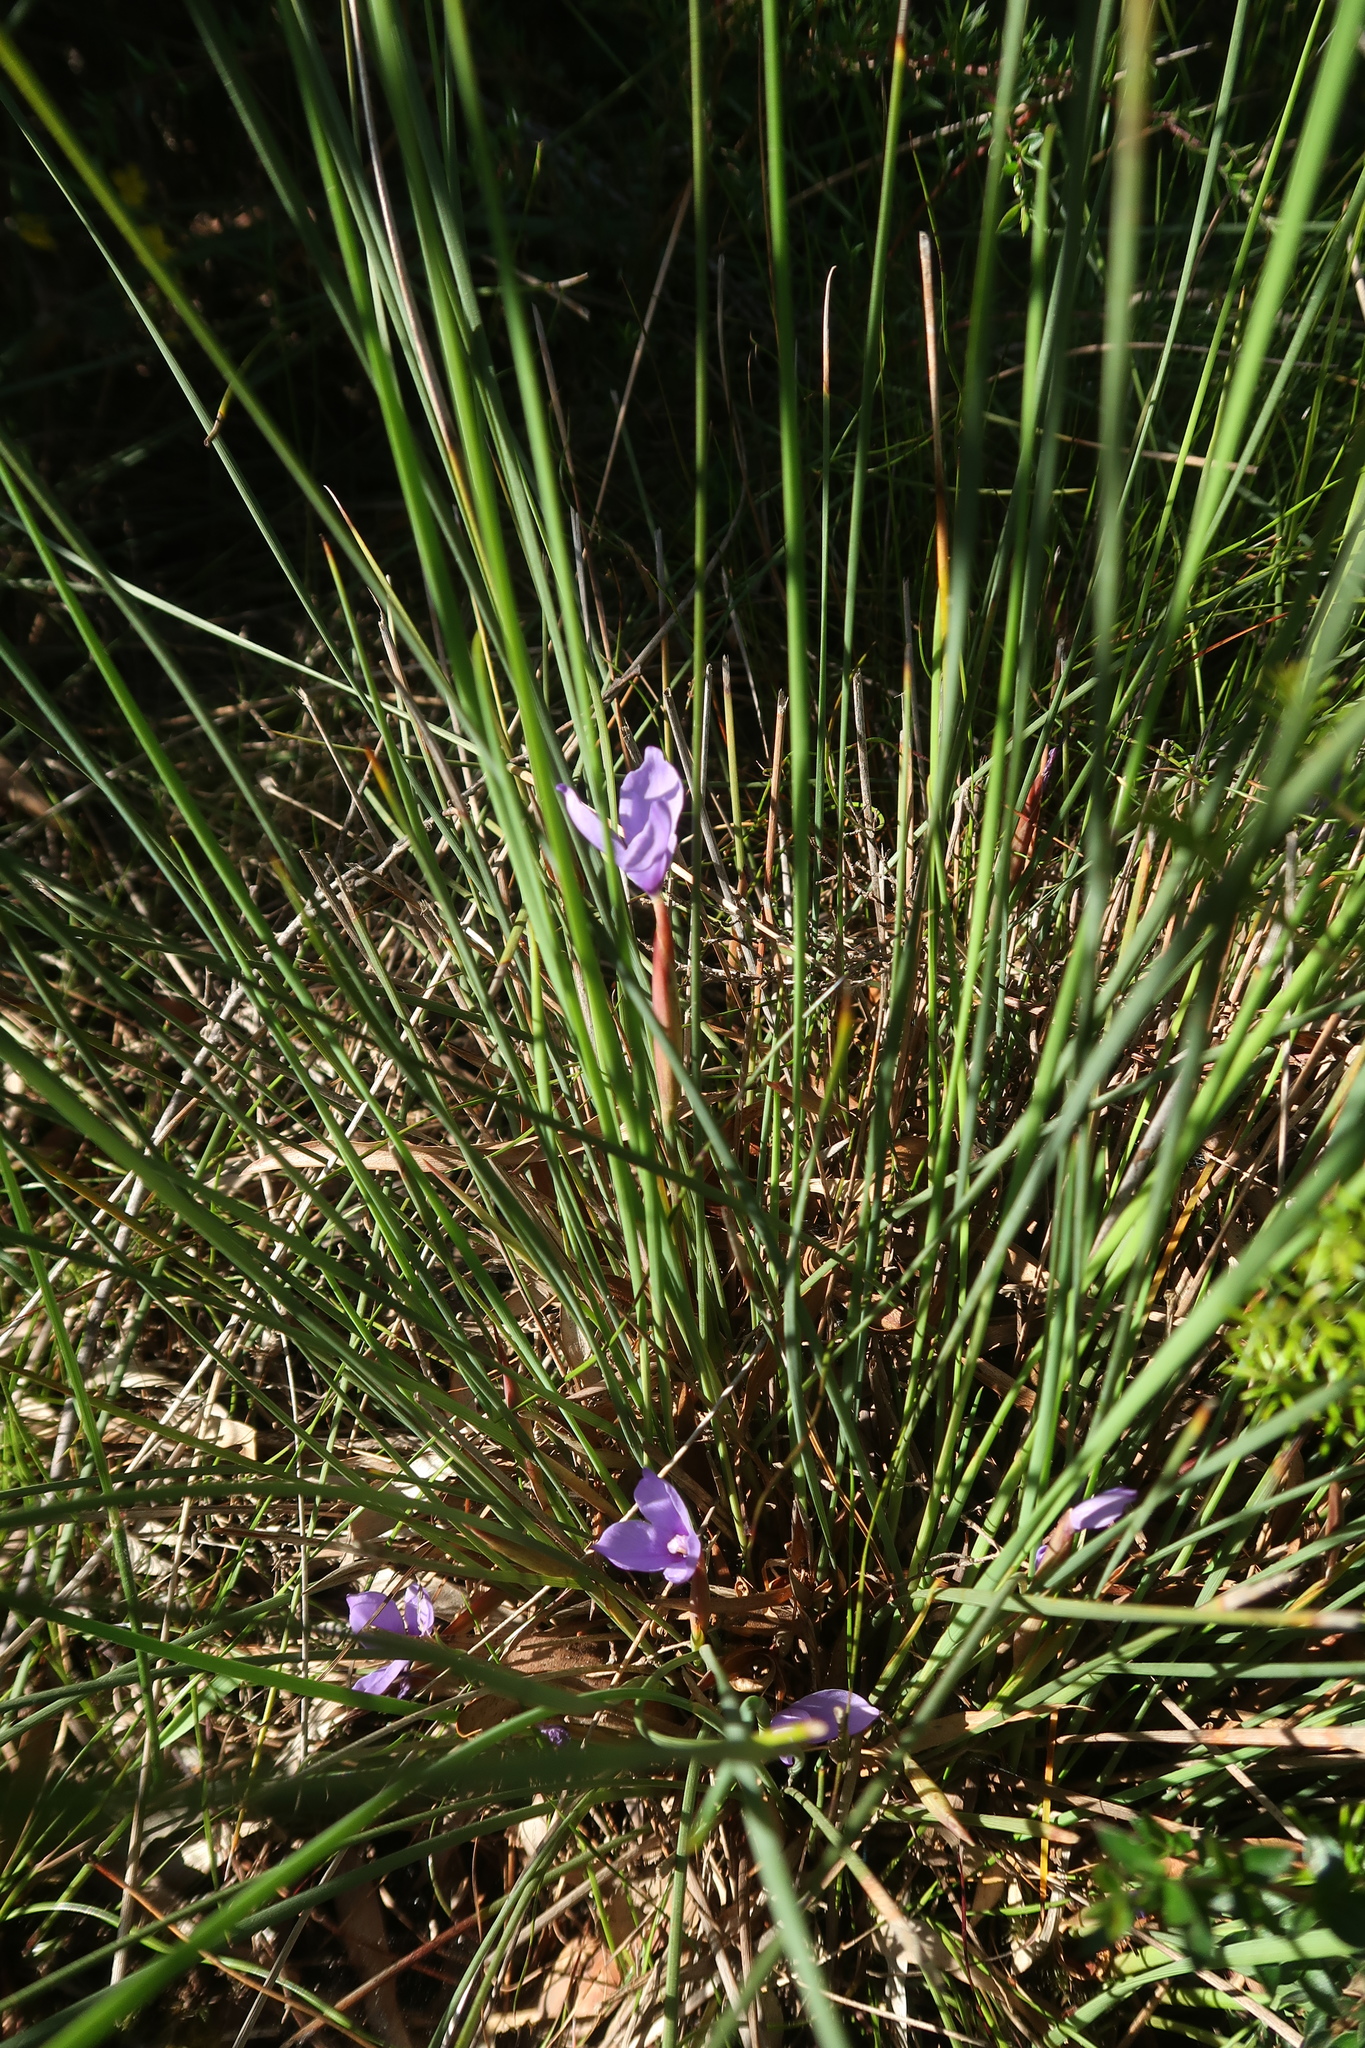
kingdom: Plantae
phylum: Tracheophyta
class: Liliopsida
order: Asparagales
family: Iridaceae
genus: Patersonia
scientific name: Patersonia fragilis
